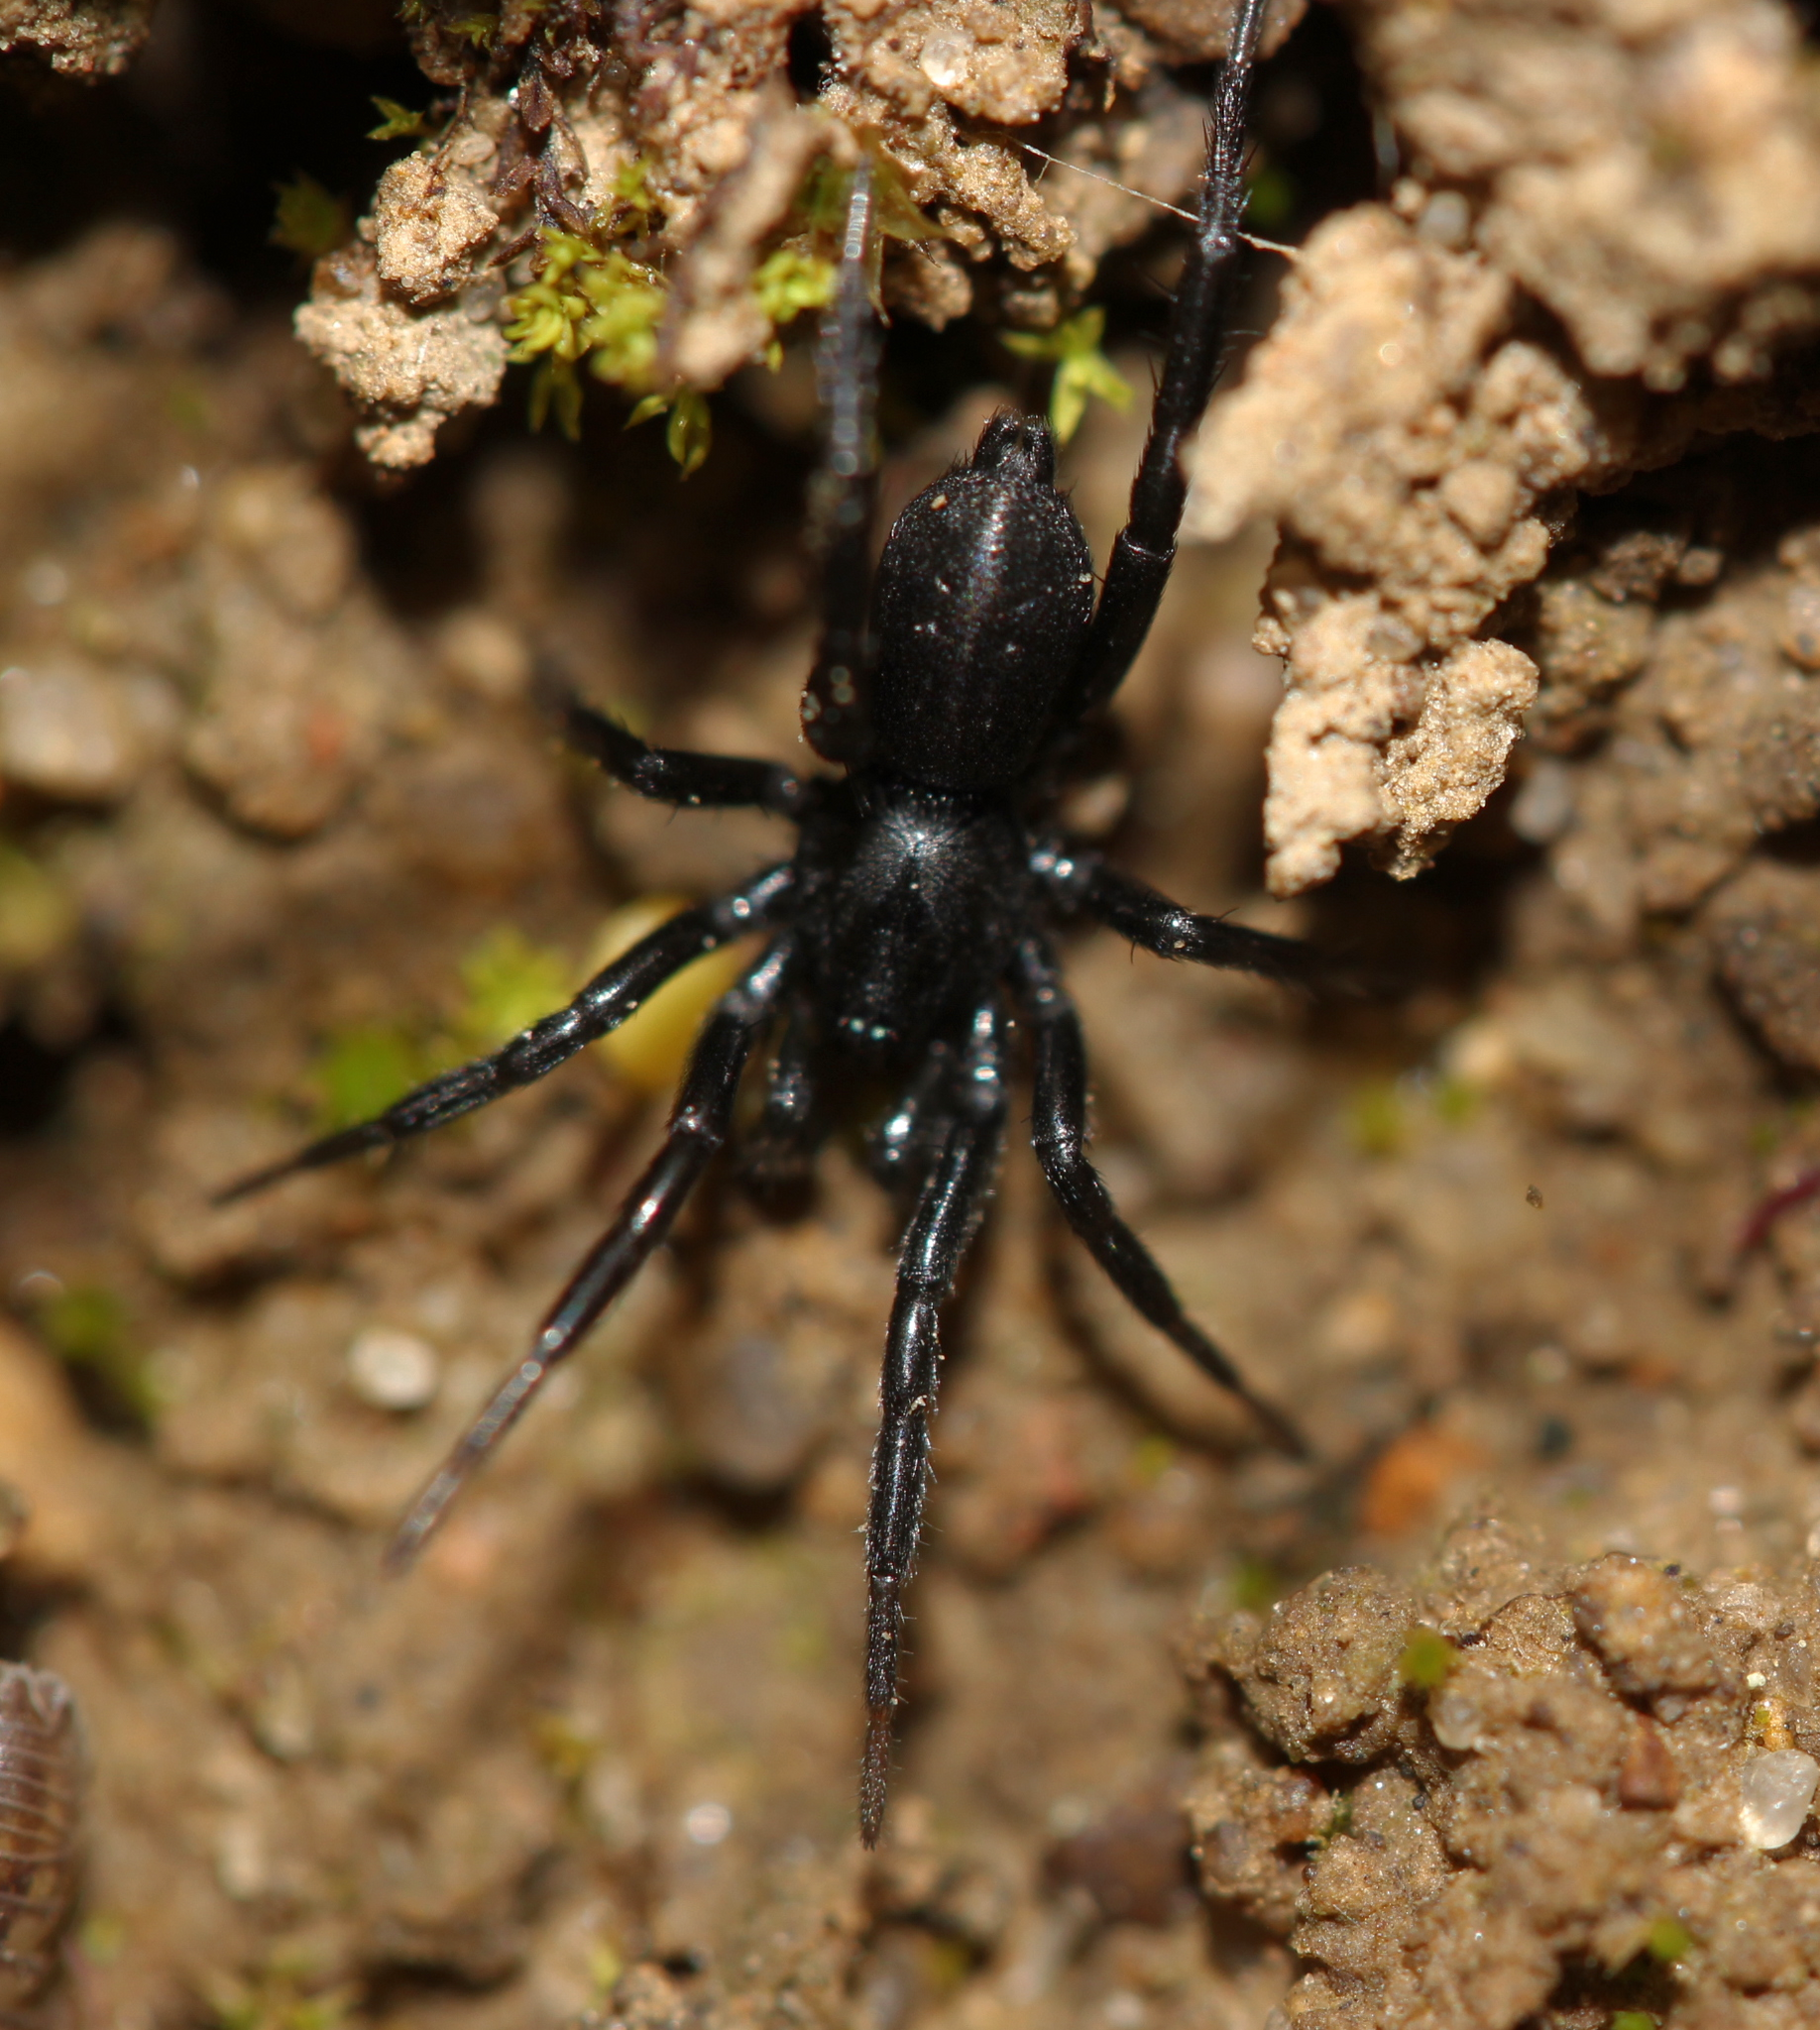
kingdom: Animalia
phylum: Arthropoda
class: Arachnida
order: Araneae
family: Gnaphosidae
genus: Drassyllus
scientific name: Drassyllus
